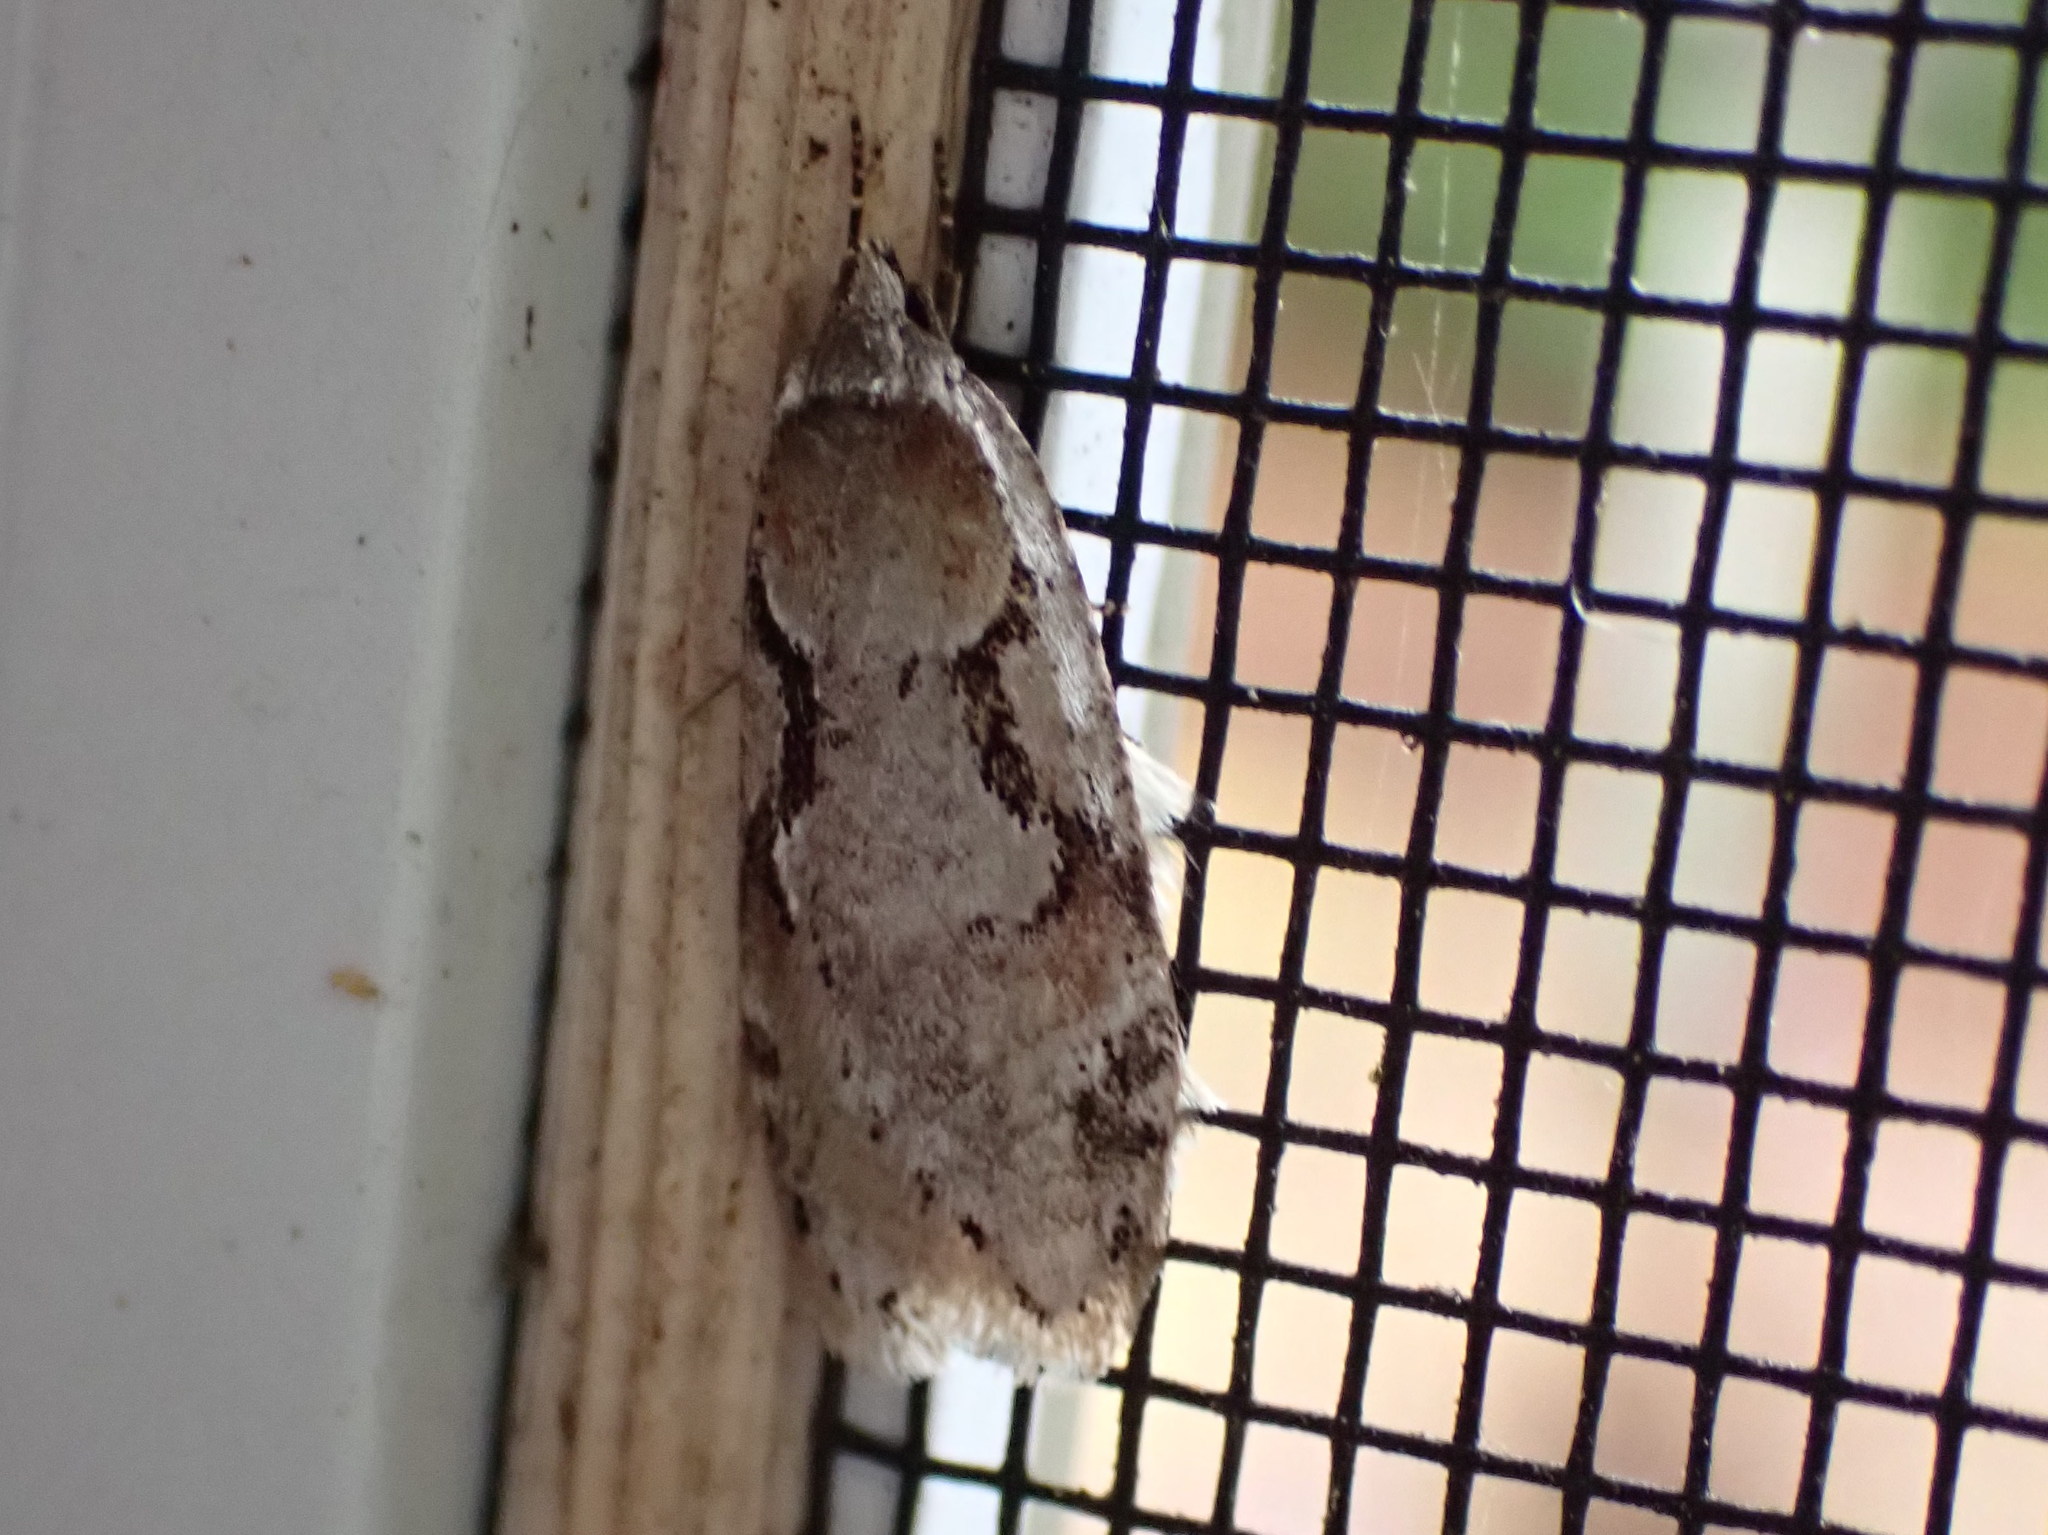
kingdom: Animalia
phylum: Arthropoda
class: Insecta
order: Lepidoptera
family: Depressariidae
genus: Semioscopis
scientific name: Semioscopis merriccella
